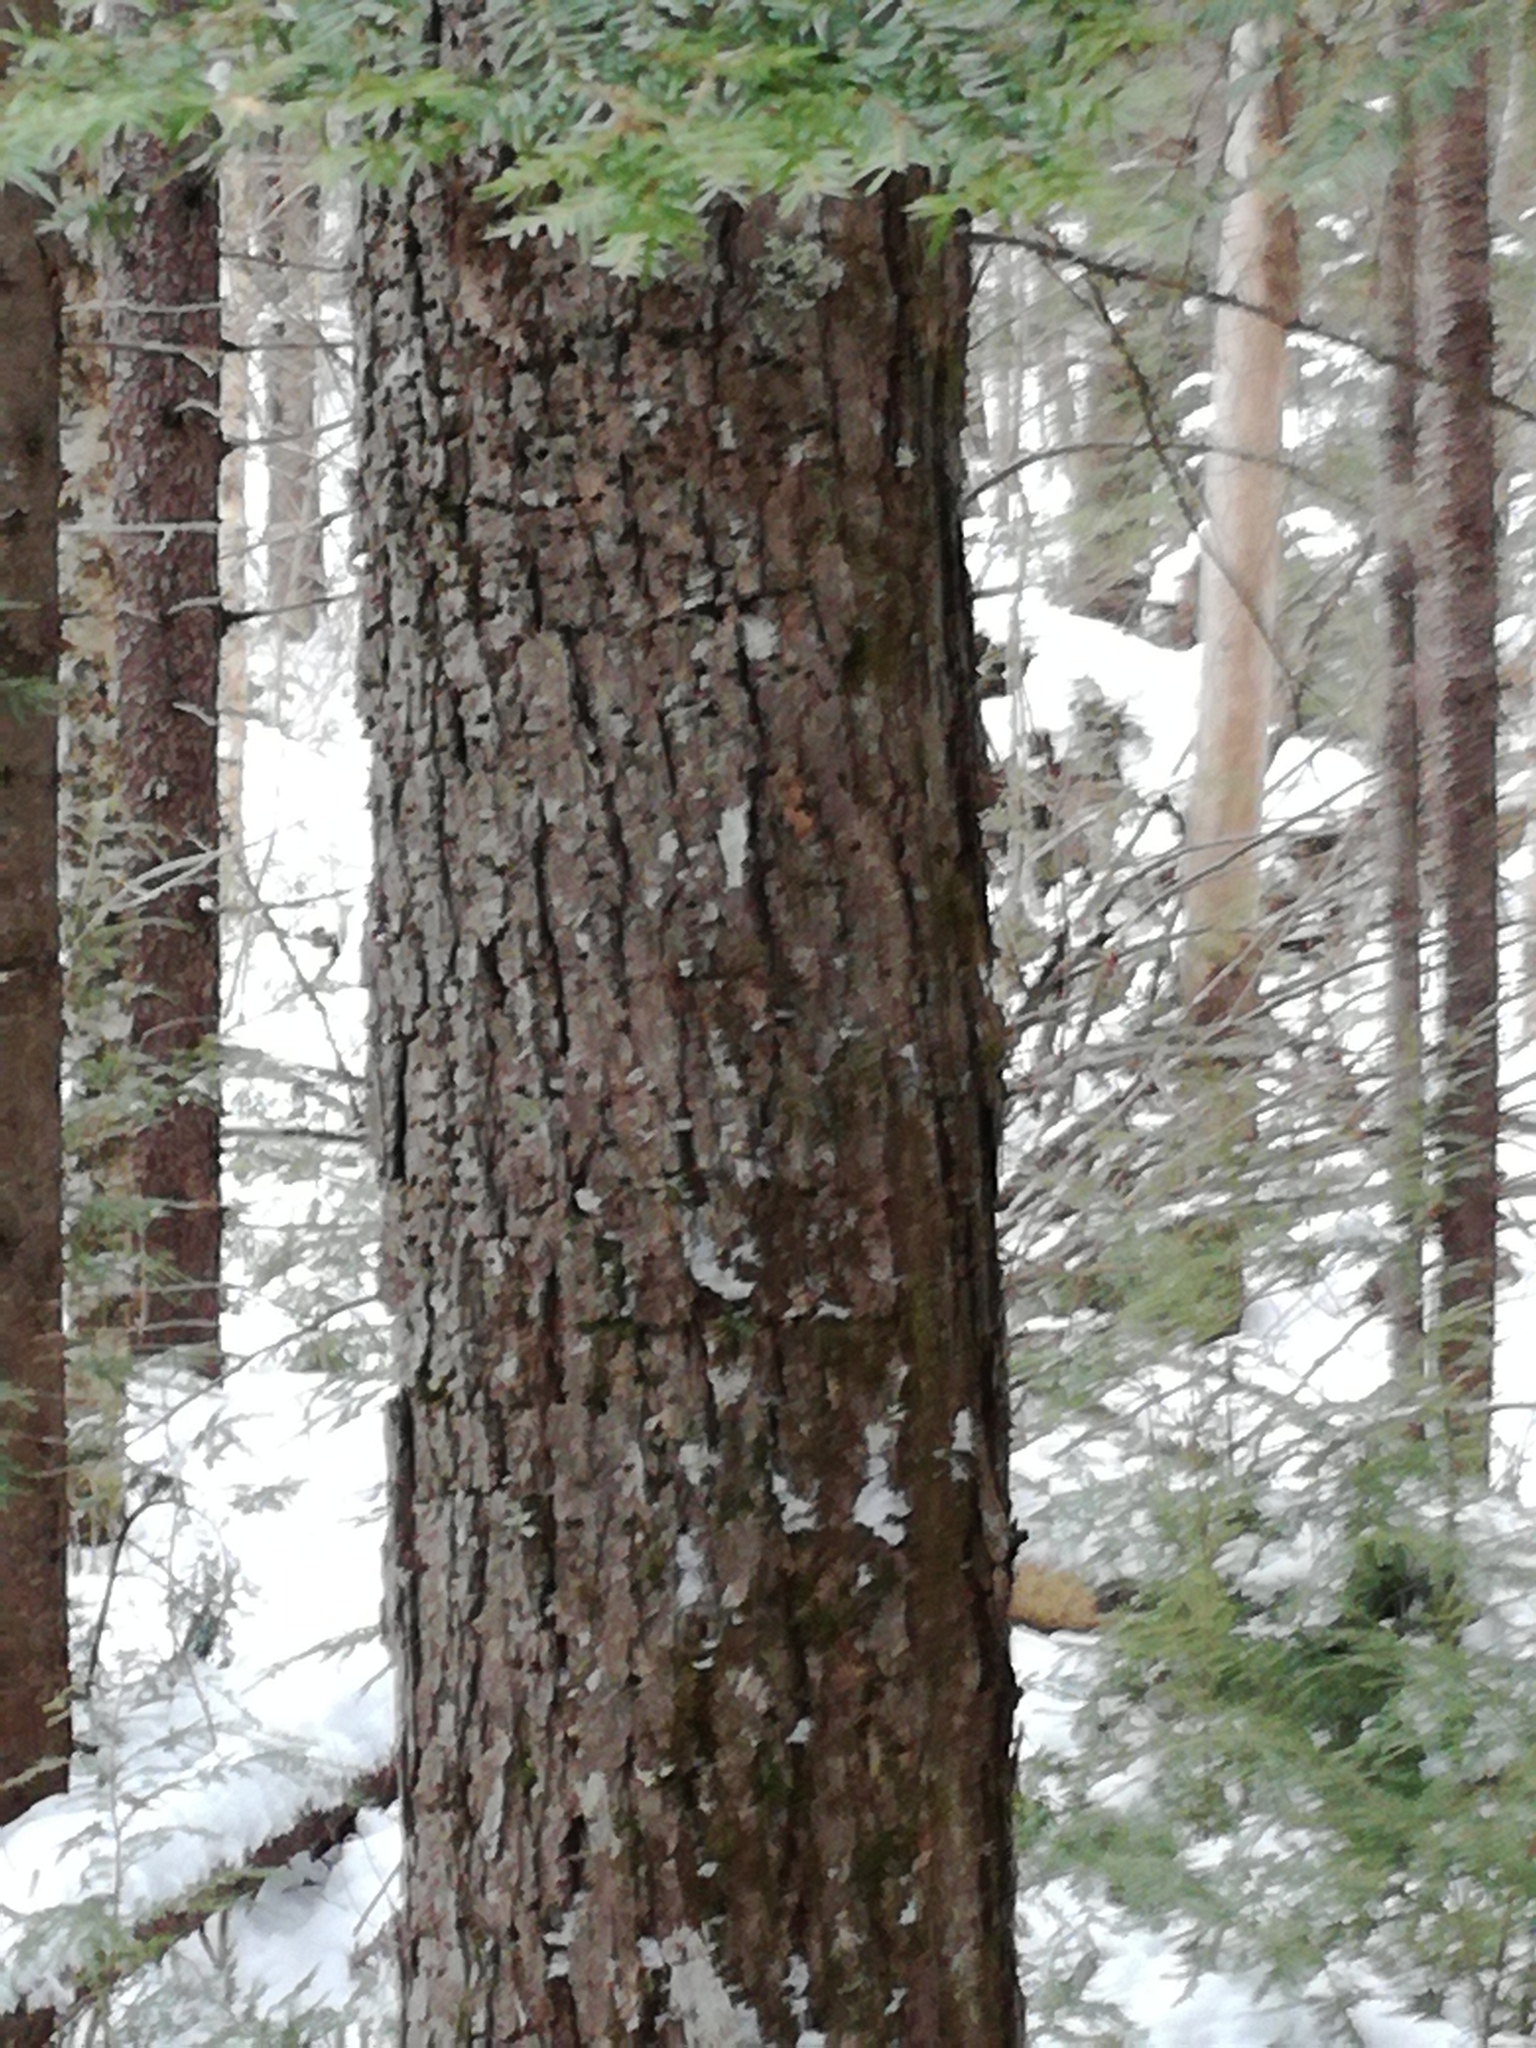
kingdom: Plantae
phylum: Tracheophyta
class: Pinopsida
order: Pinales
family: Pinaceae
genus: Tsuga
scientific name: Tsuga canadensis
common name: Eastern hemlock
